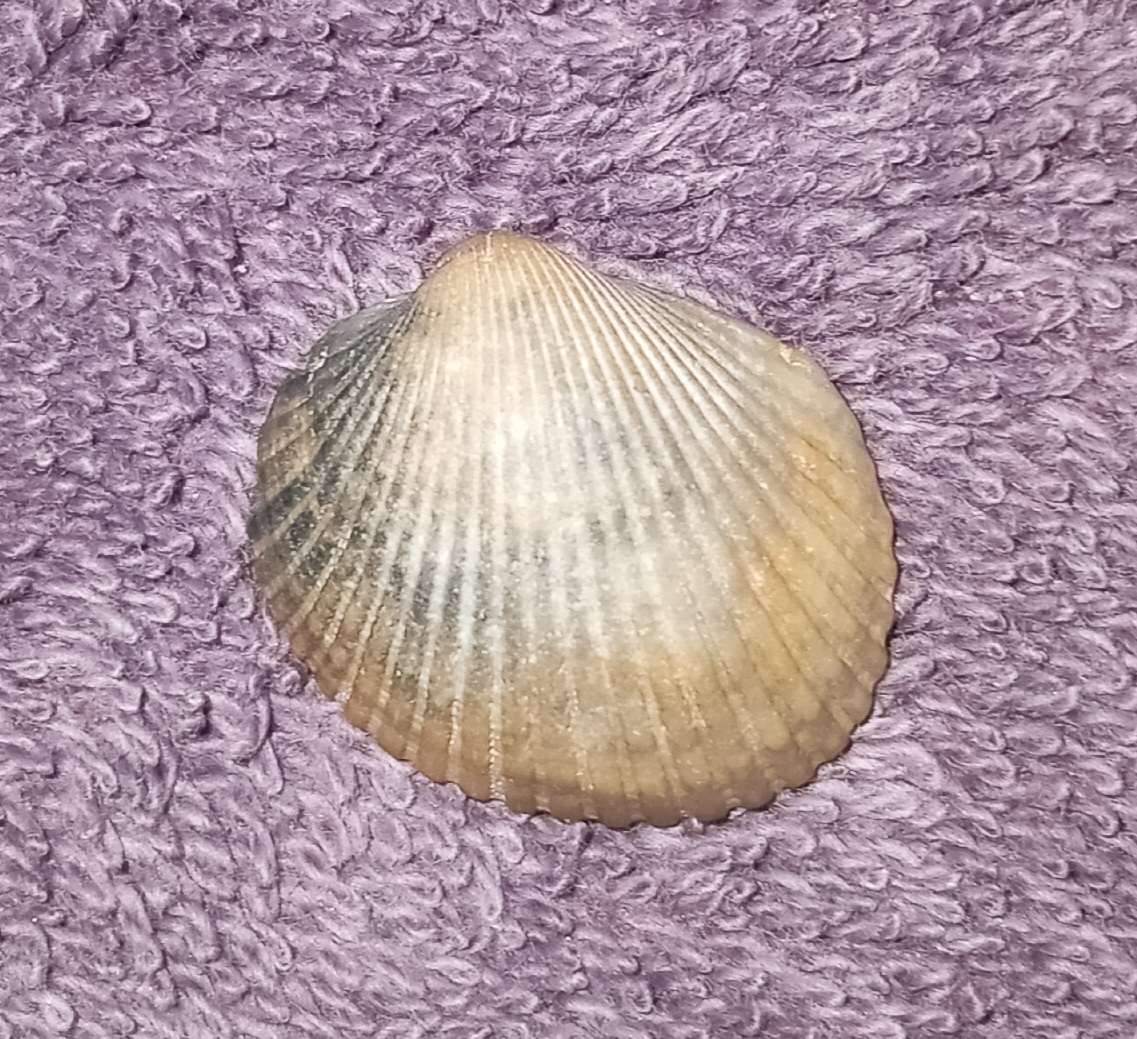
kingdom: Animalia
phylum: Mollusca
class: Bivalvia
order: Arcida
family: Arcidae
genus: Lunarca
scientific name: Lunarca ovalis
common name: Blood ark
